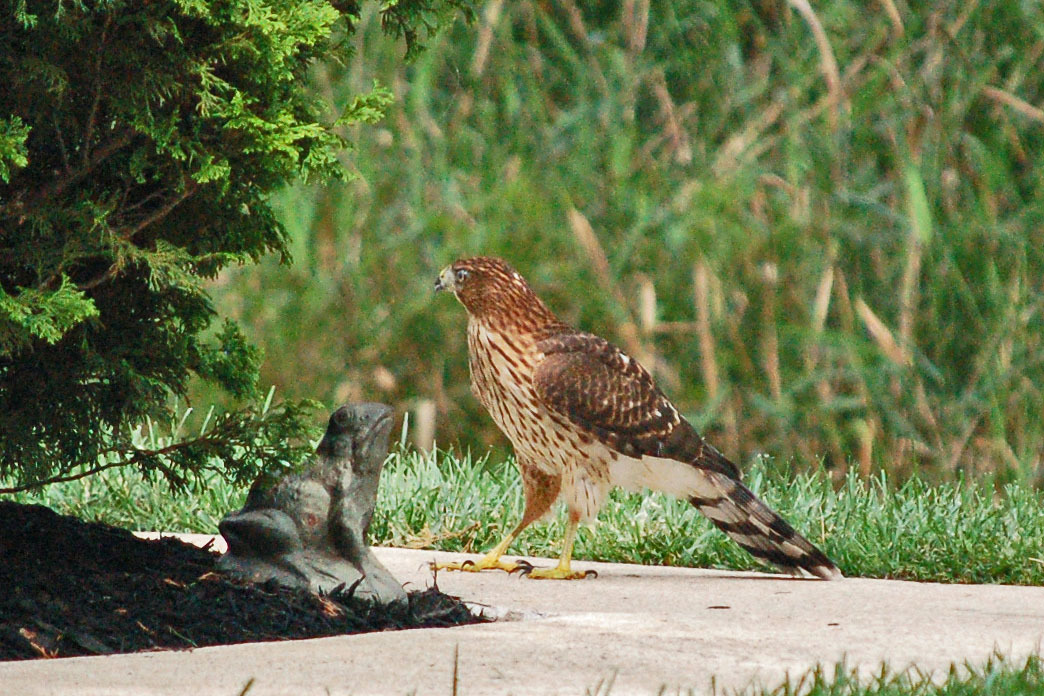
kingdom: Animalia
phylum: Chordata
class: Aves
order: Accipitriformes
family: Accipitridae
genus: Accipiter
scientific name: Accipiter cooperii
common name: Cooper's hawk
